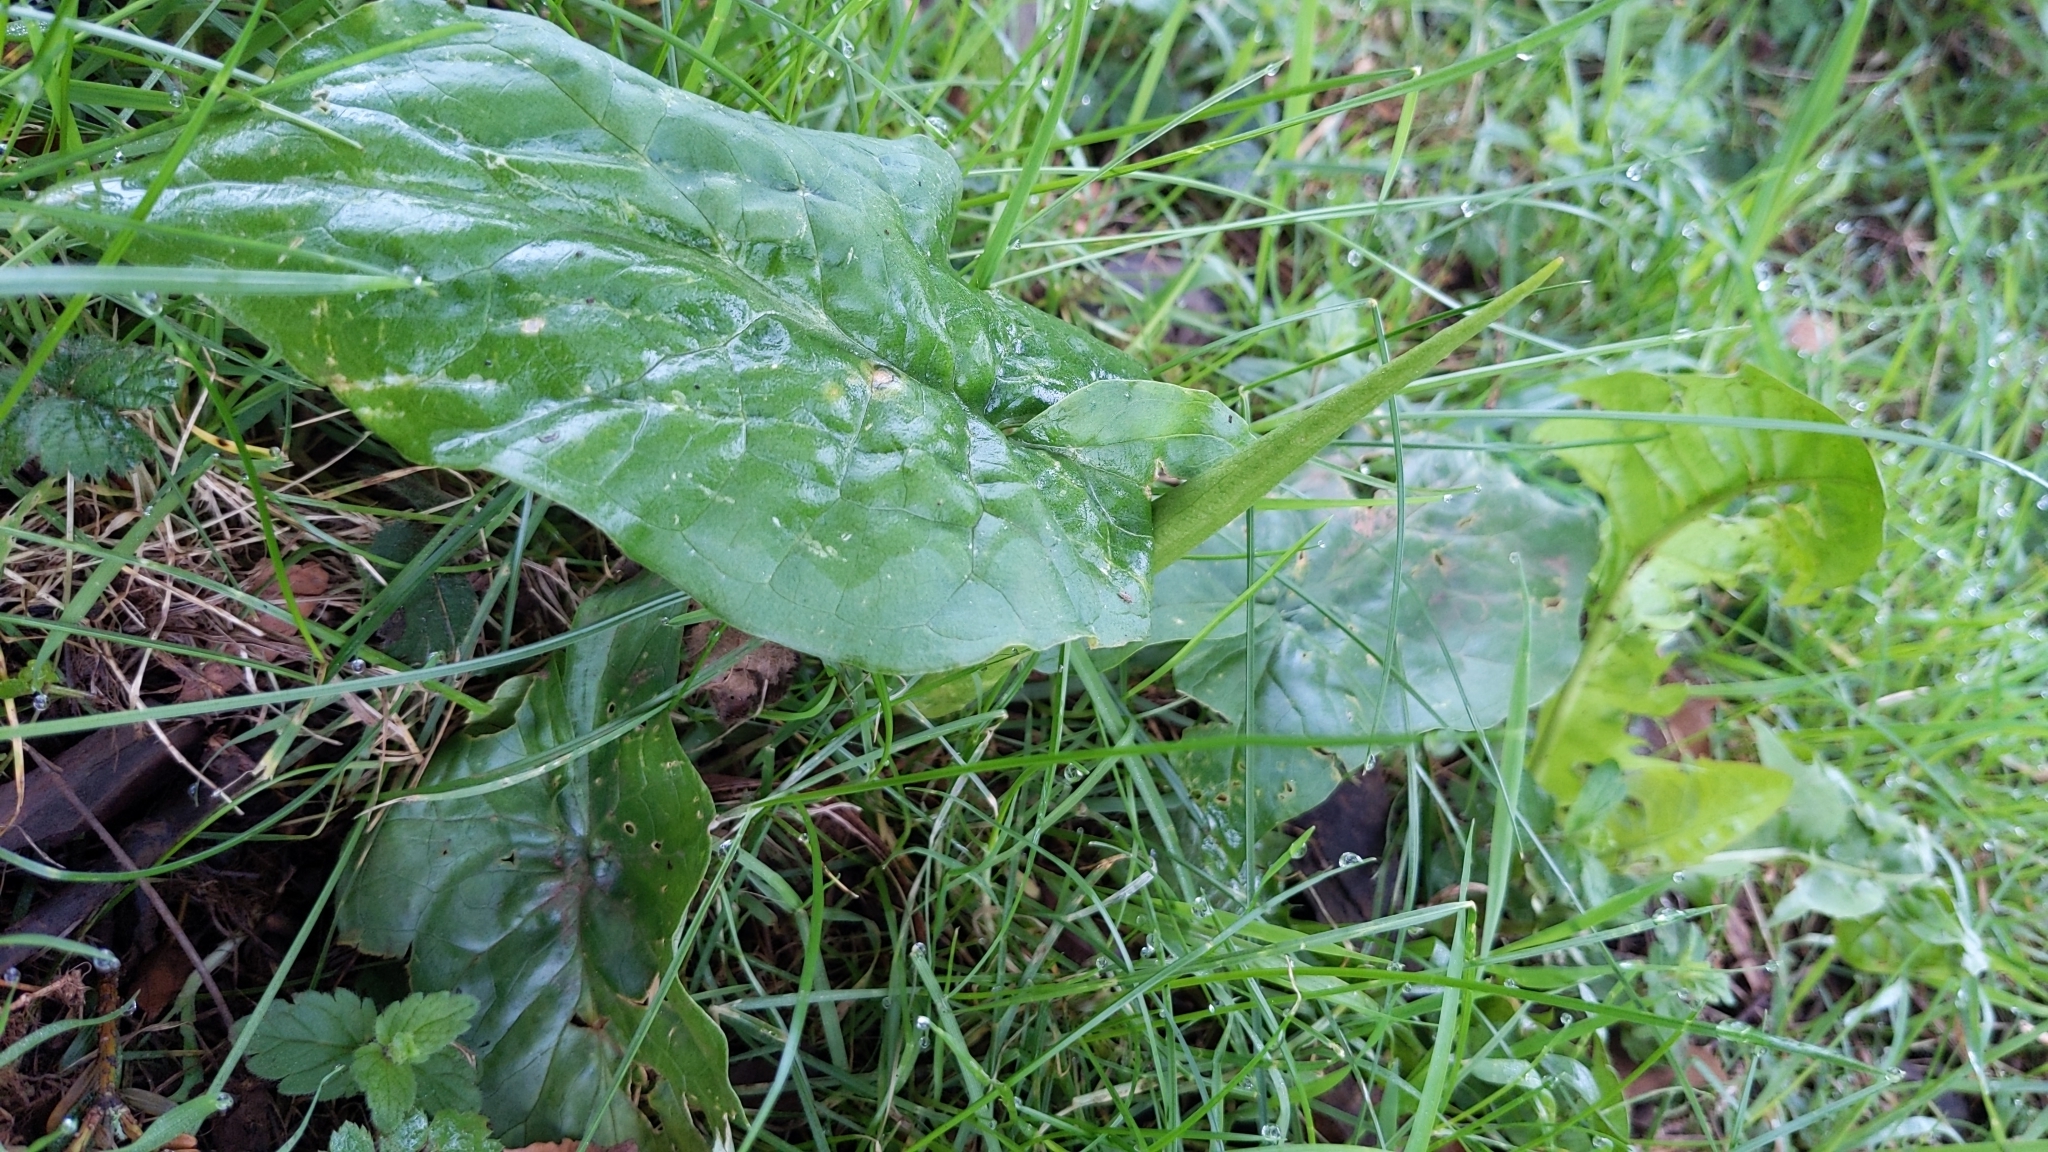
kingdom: Plantae
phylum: Tracheophyta
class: Liliopsida
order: Alismatales
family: Araceae
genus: Arum
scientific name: Arum maculatum
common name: Lords-and-ladies
